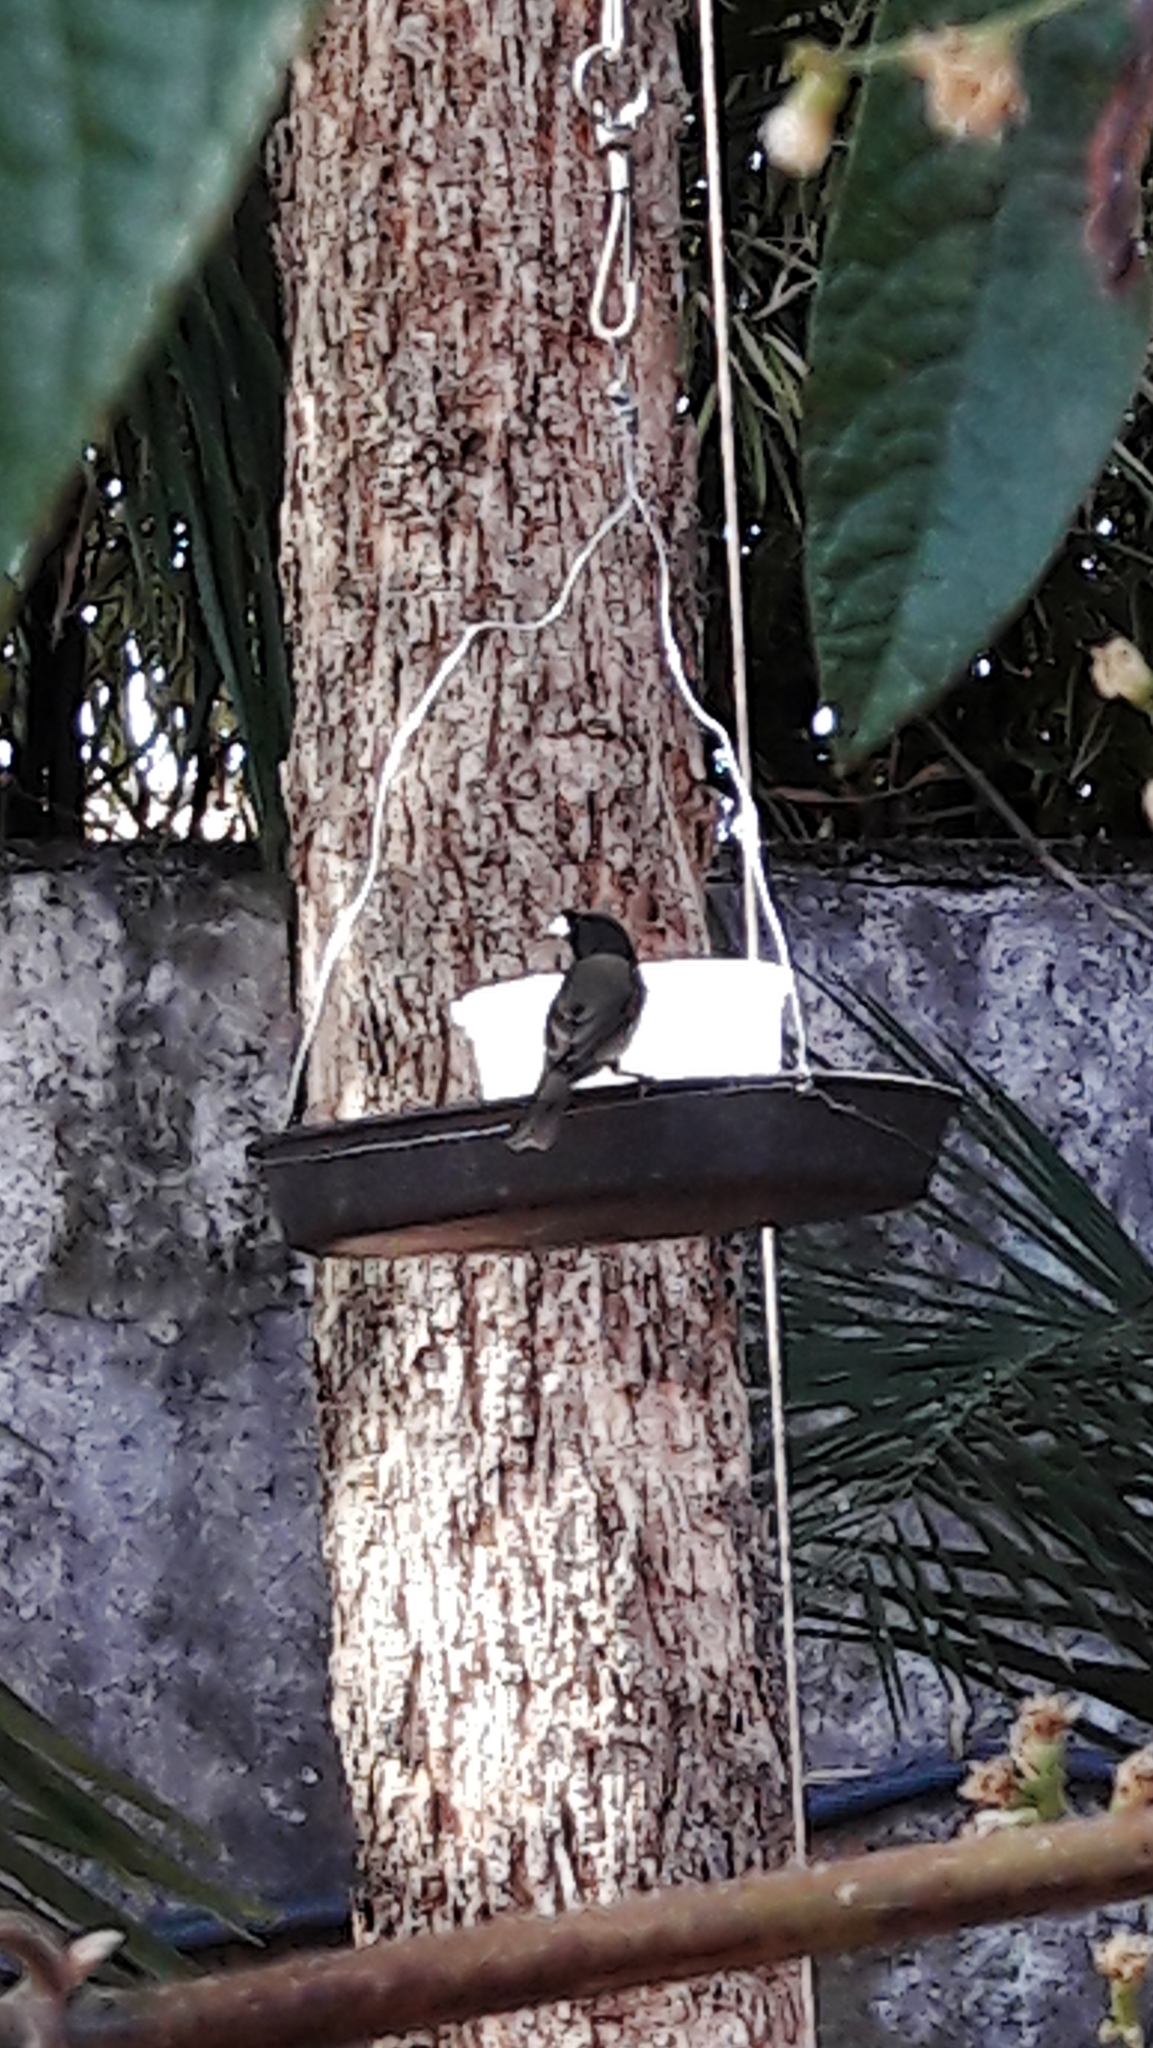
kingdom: Animalia
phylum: Chordata
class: Aves
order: Passeriformes
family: Thraupidae
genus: Sporophila
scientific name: Sporophila nigricollis
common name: Yellow-bellied seedeater
